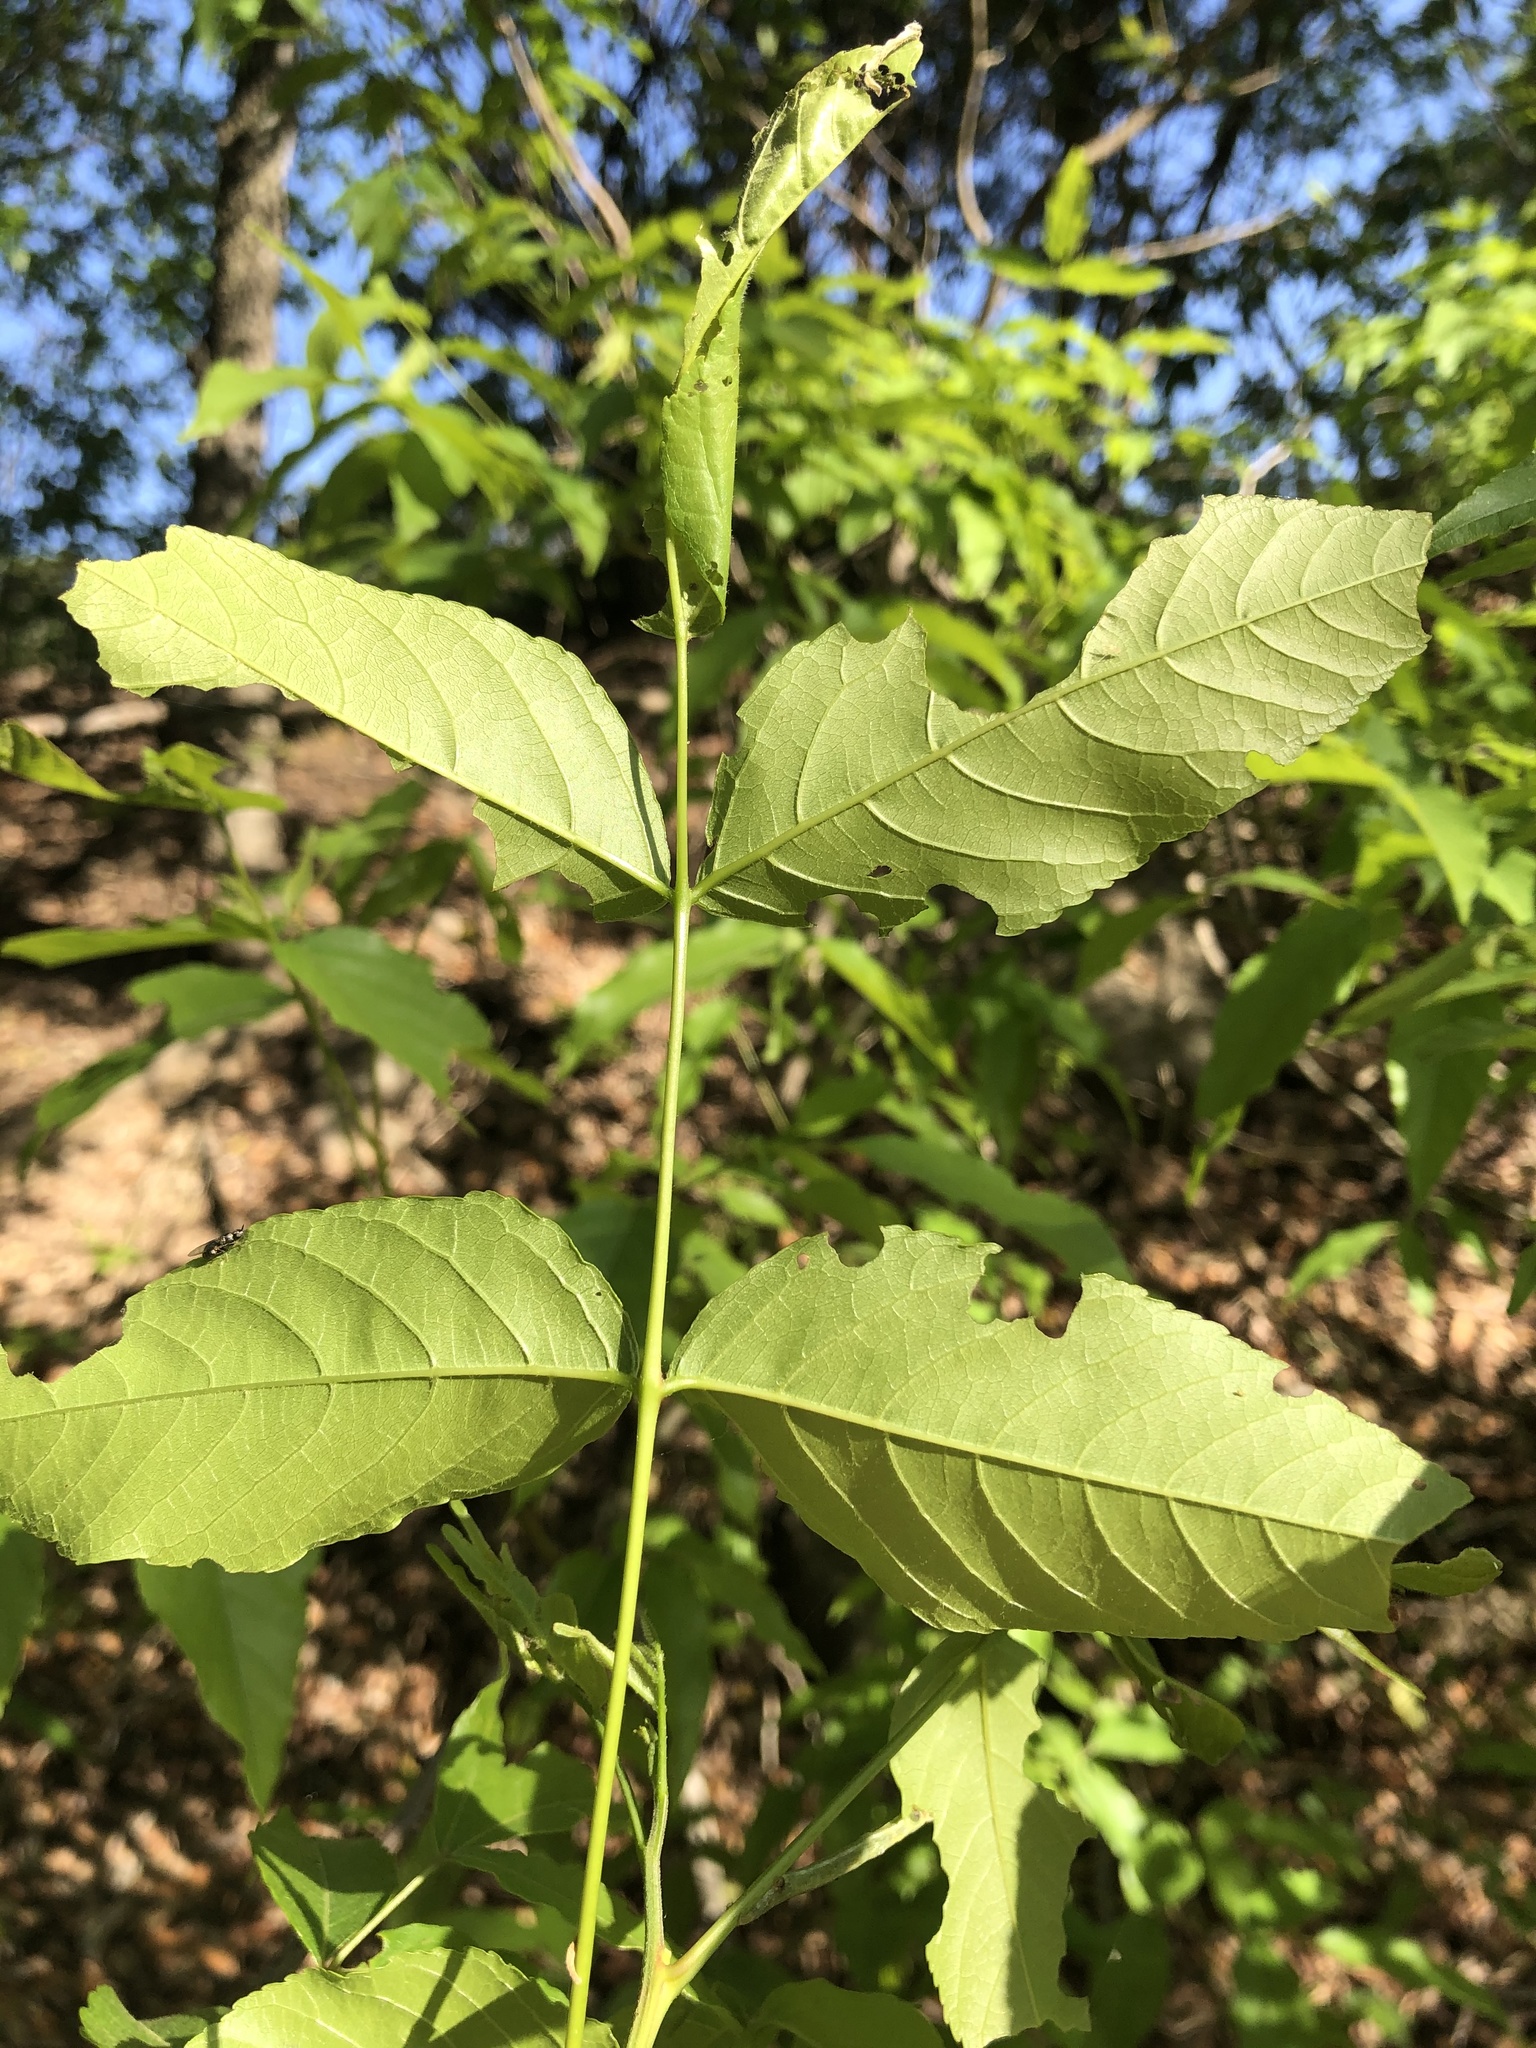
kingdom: Plantae
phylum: Tracheophyta
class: Magnoliopsida
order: Sapindales
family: Sapindaceae
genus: Ungnadia
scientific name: Ungnadia speciosa
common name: Texas-buckeye
